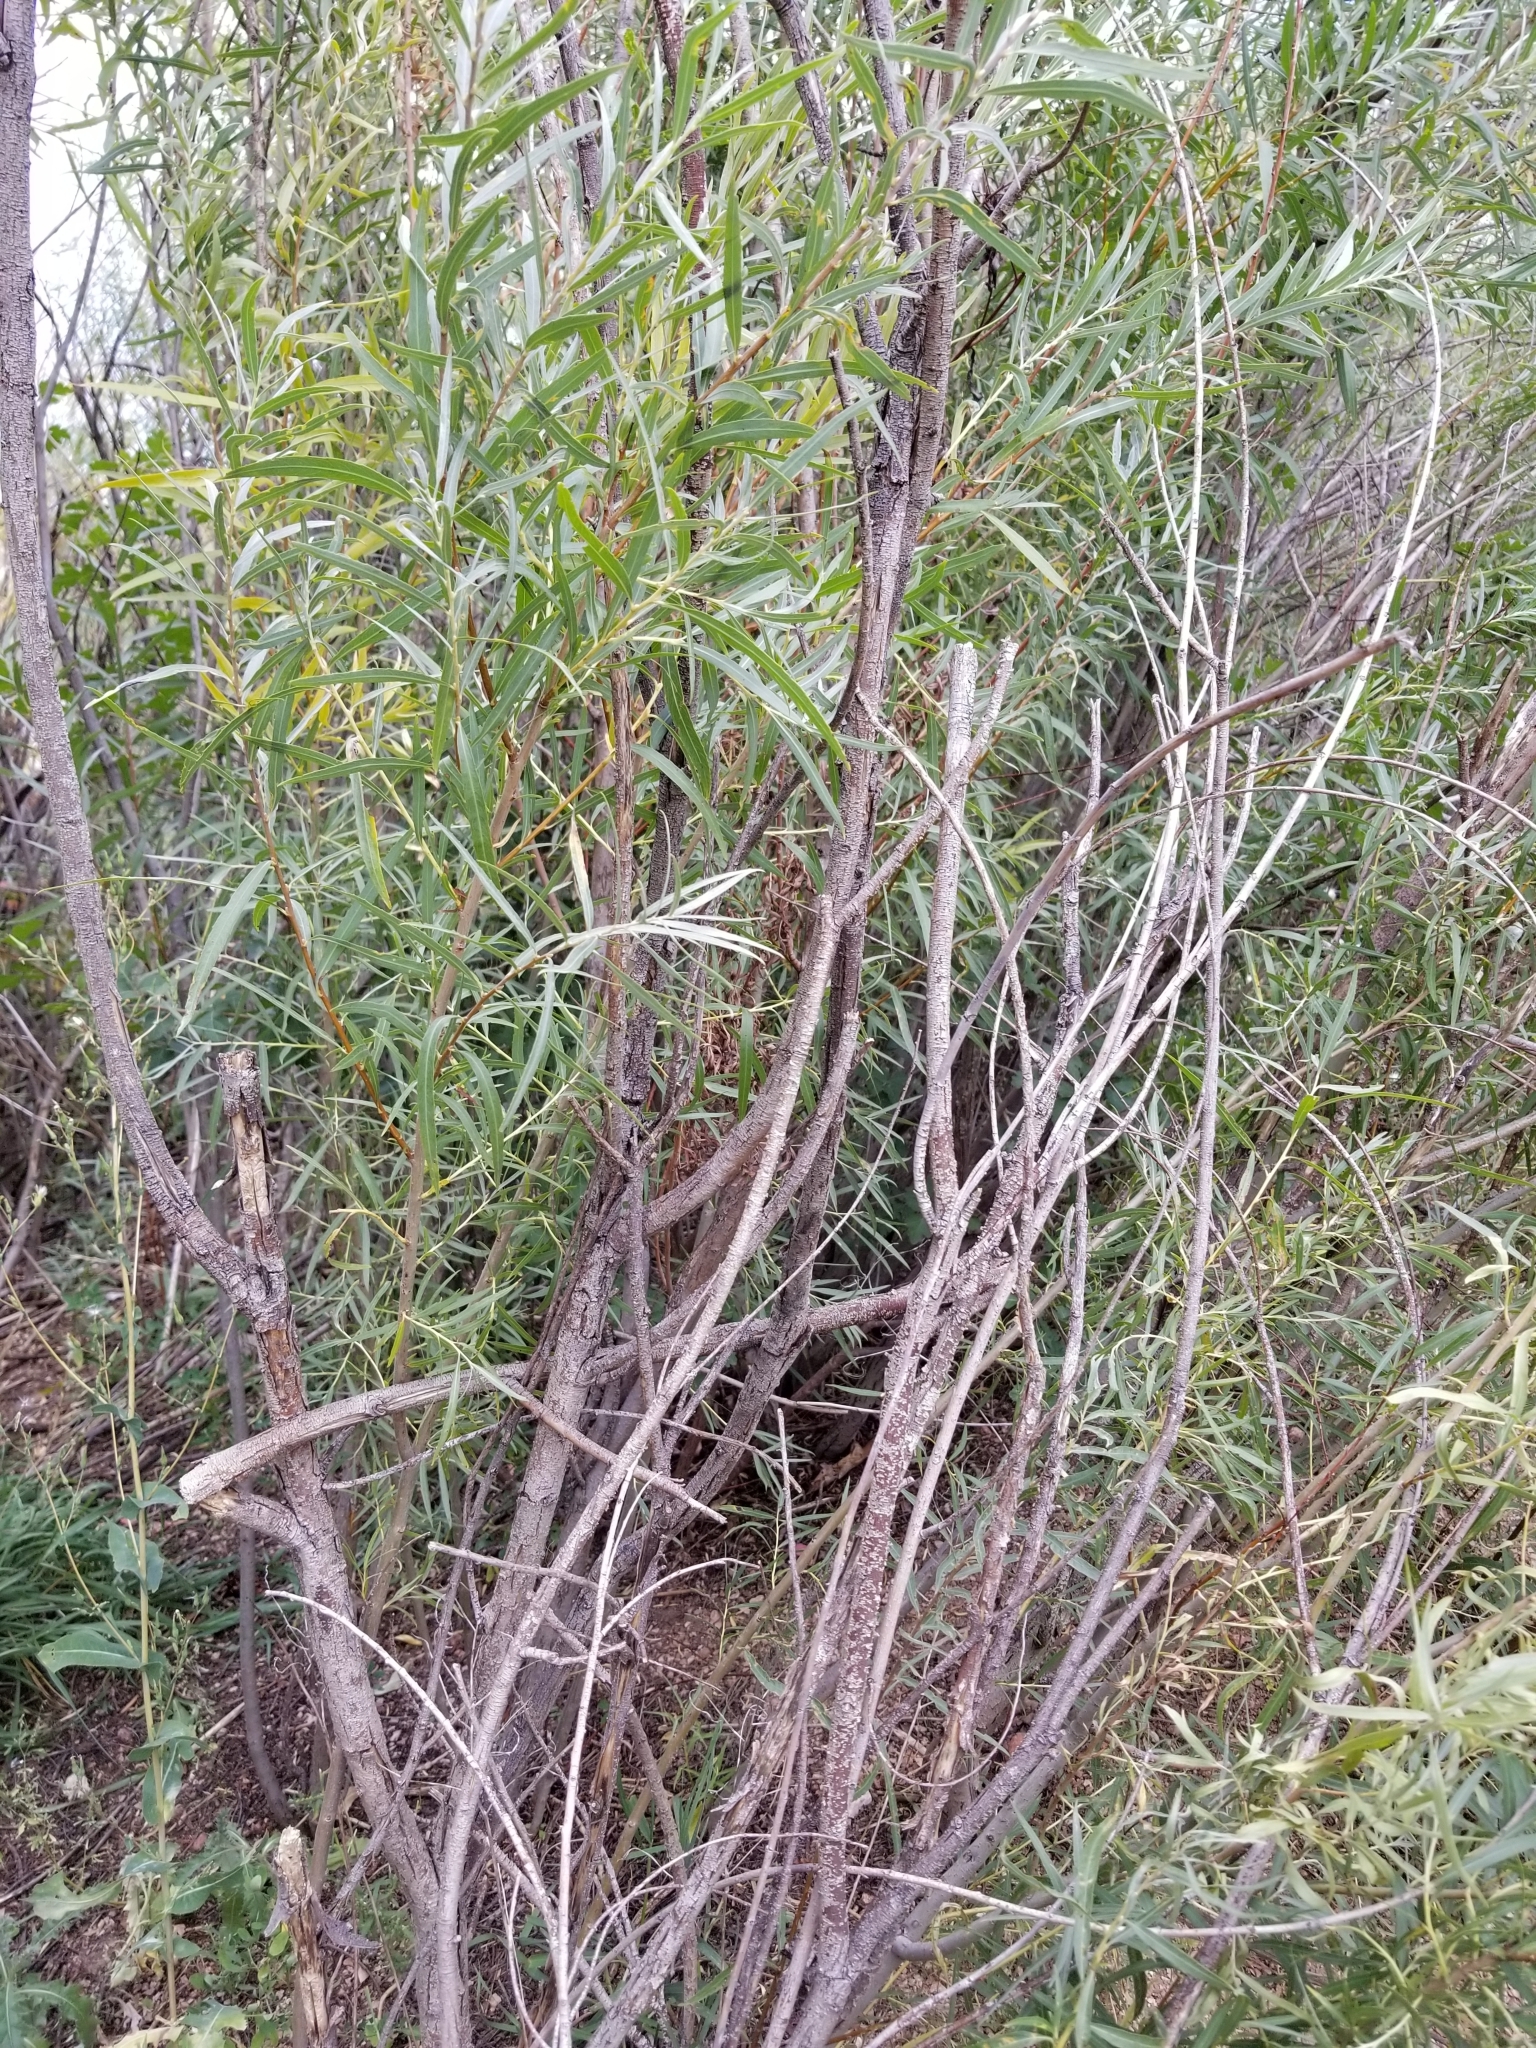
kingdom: Plantae
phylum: Tracheophyta
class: Magnoliopsida
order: Malpighiales
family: Salicaceae
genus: Salix
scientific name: Salix exigua
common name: Coyote willow
